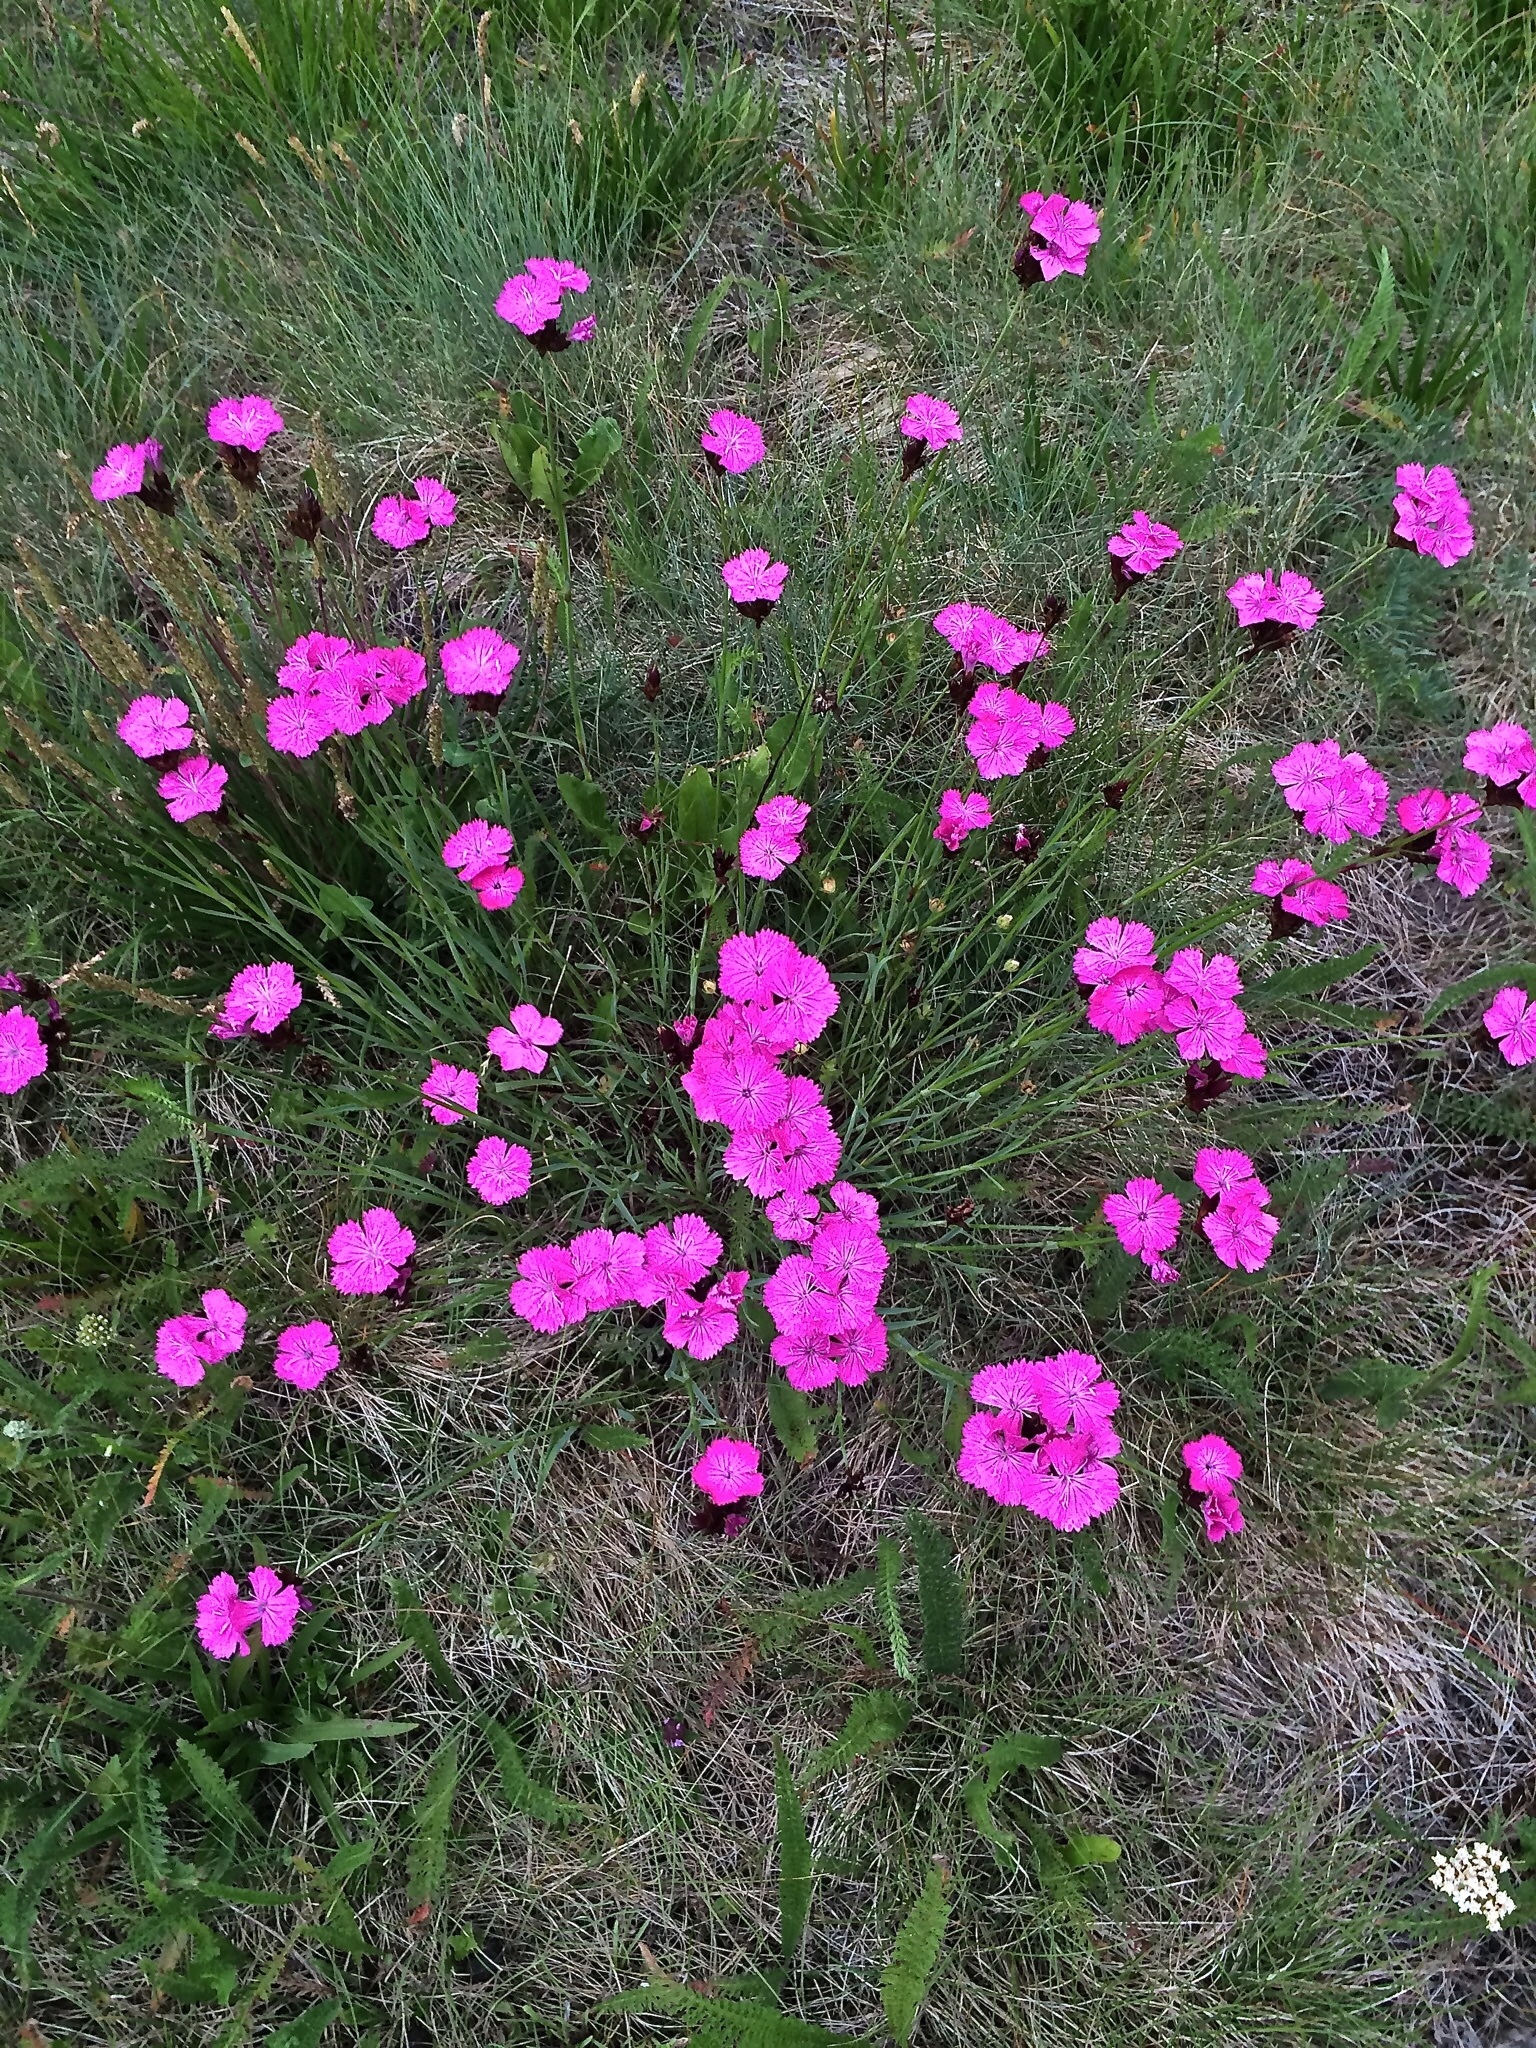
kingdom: Plantae
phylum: Tracheophyta
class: Magnoliopsida
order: Caryophyllales
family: Caryophyllaceae
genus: Dianthus
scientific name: Dianthus carthusianorum
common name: Carthusian pink
